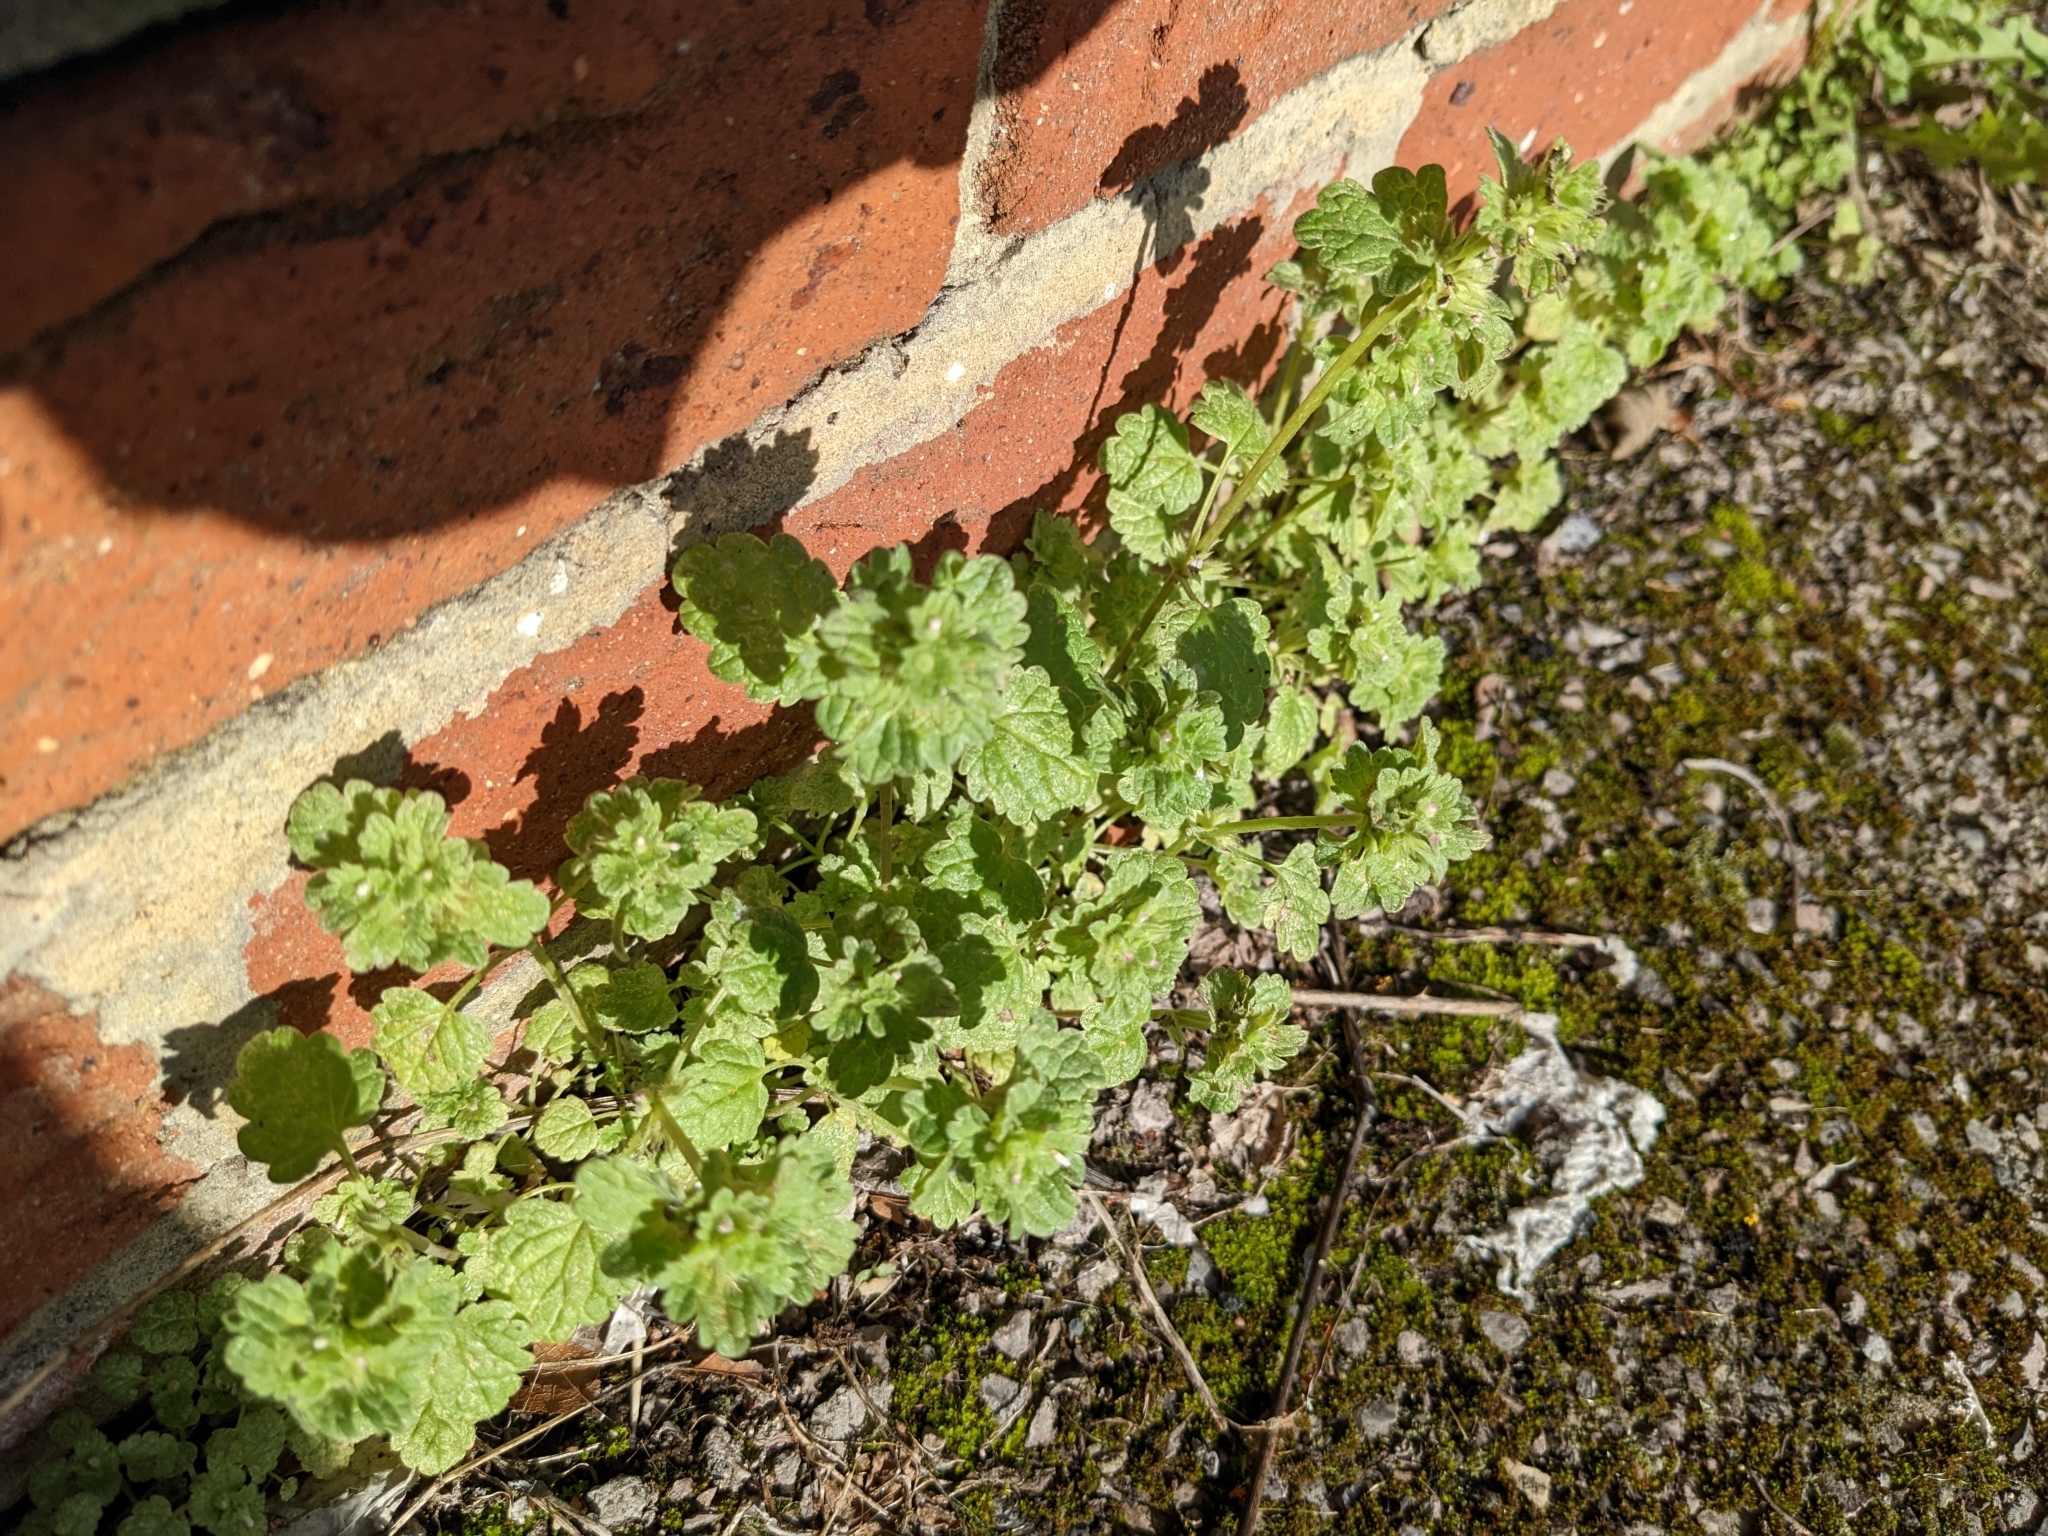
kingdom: Plantae
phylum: Tracheophyta
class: Magnoliopsida
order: Lamiales
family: Lamiaceae
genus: Lamium
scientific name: Lamium amplexicaule
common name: Henbit dead-nettle
